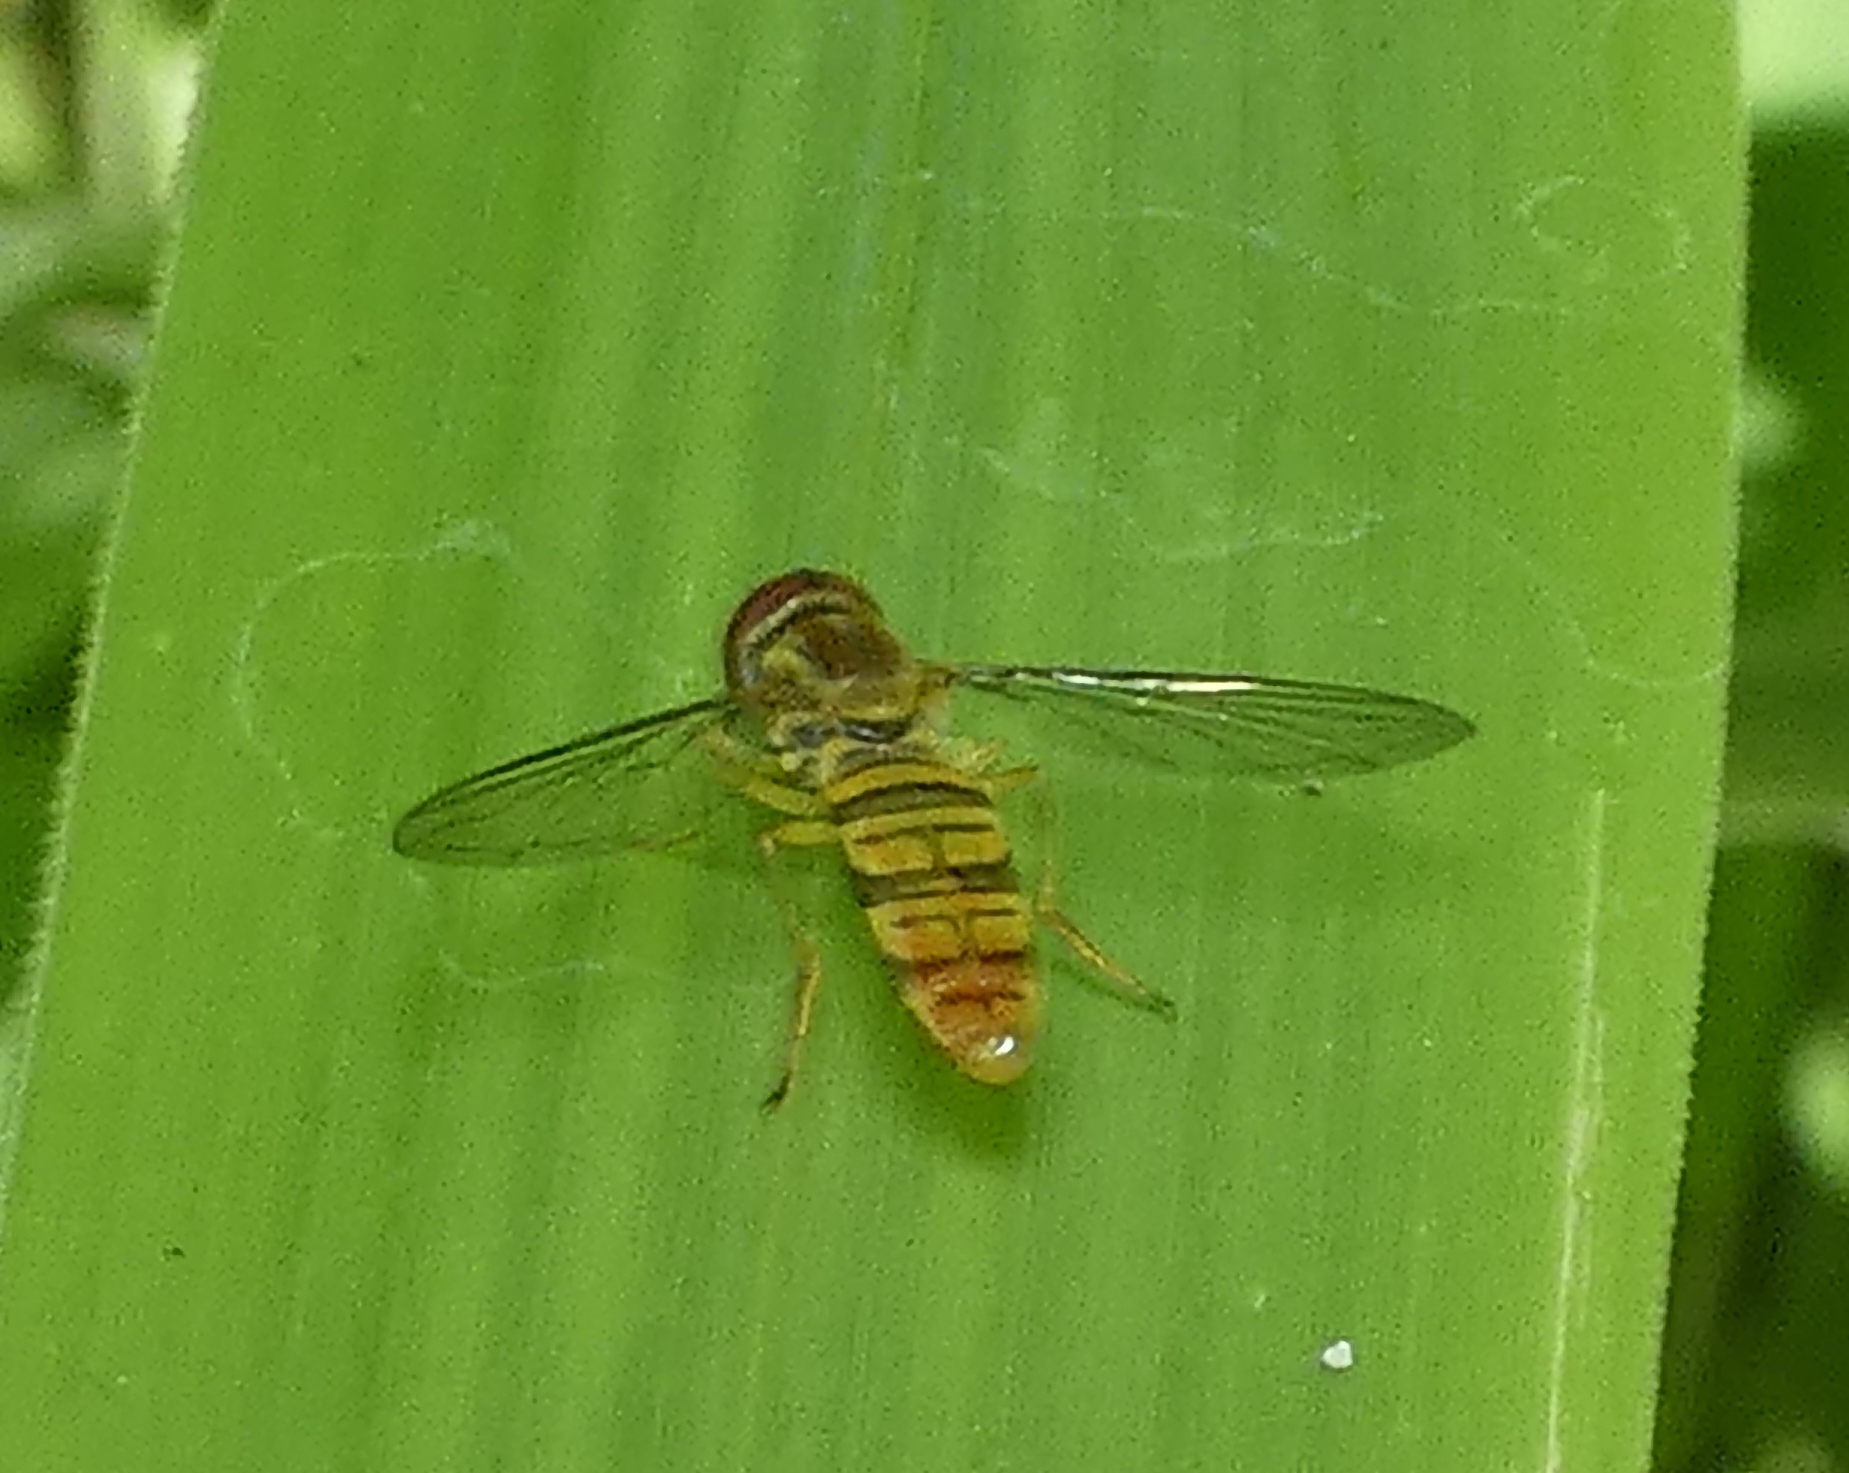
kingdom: Animalia
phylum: Arthropoda
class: Insecta
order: Diptera
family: Syrphidae
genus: Toxomerus
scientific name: Toxomerus politus
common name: Maize calligrapher
